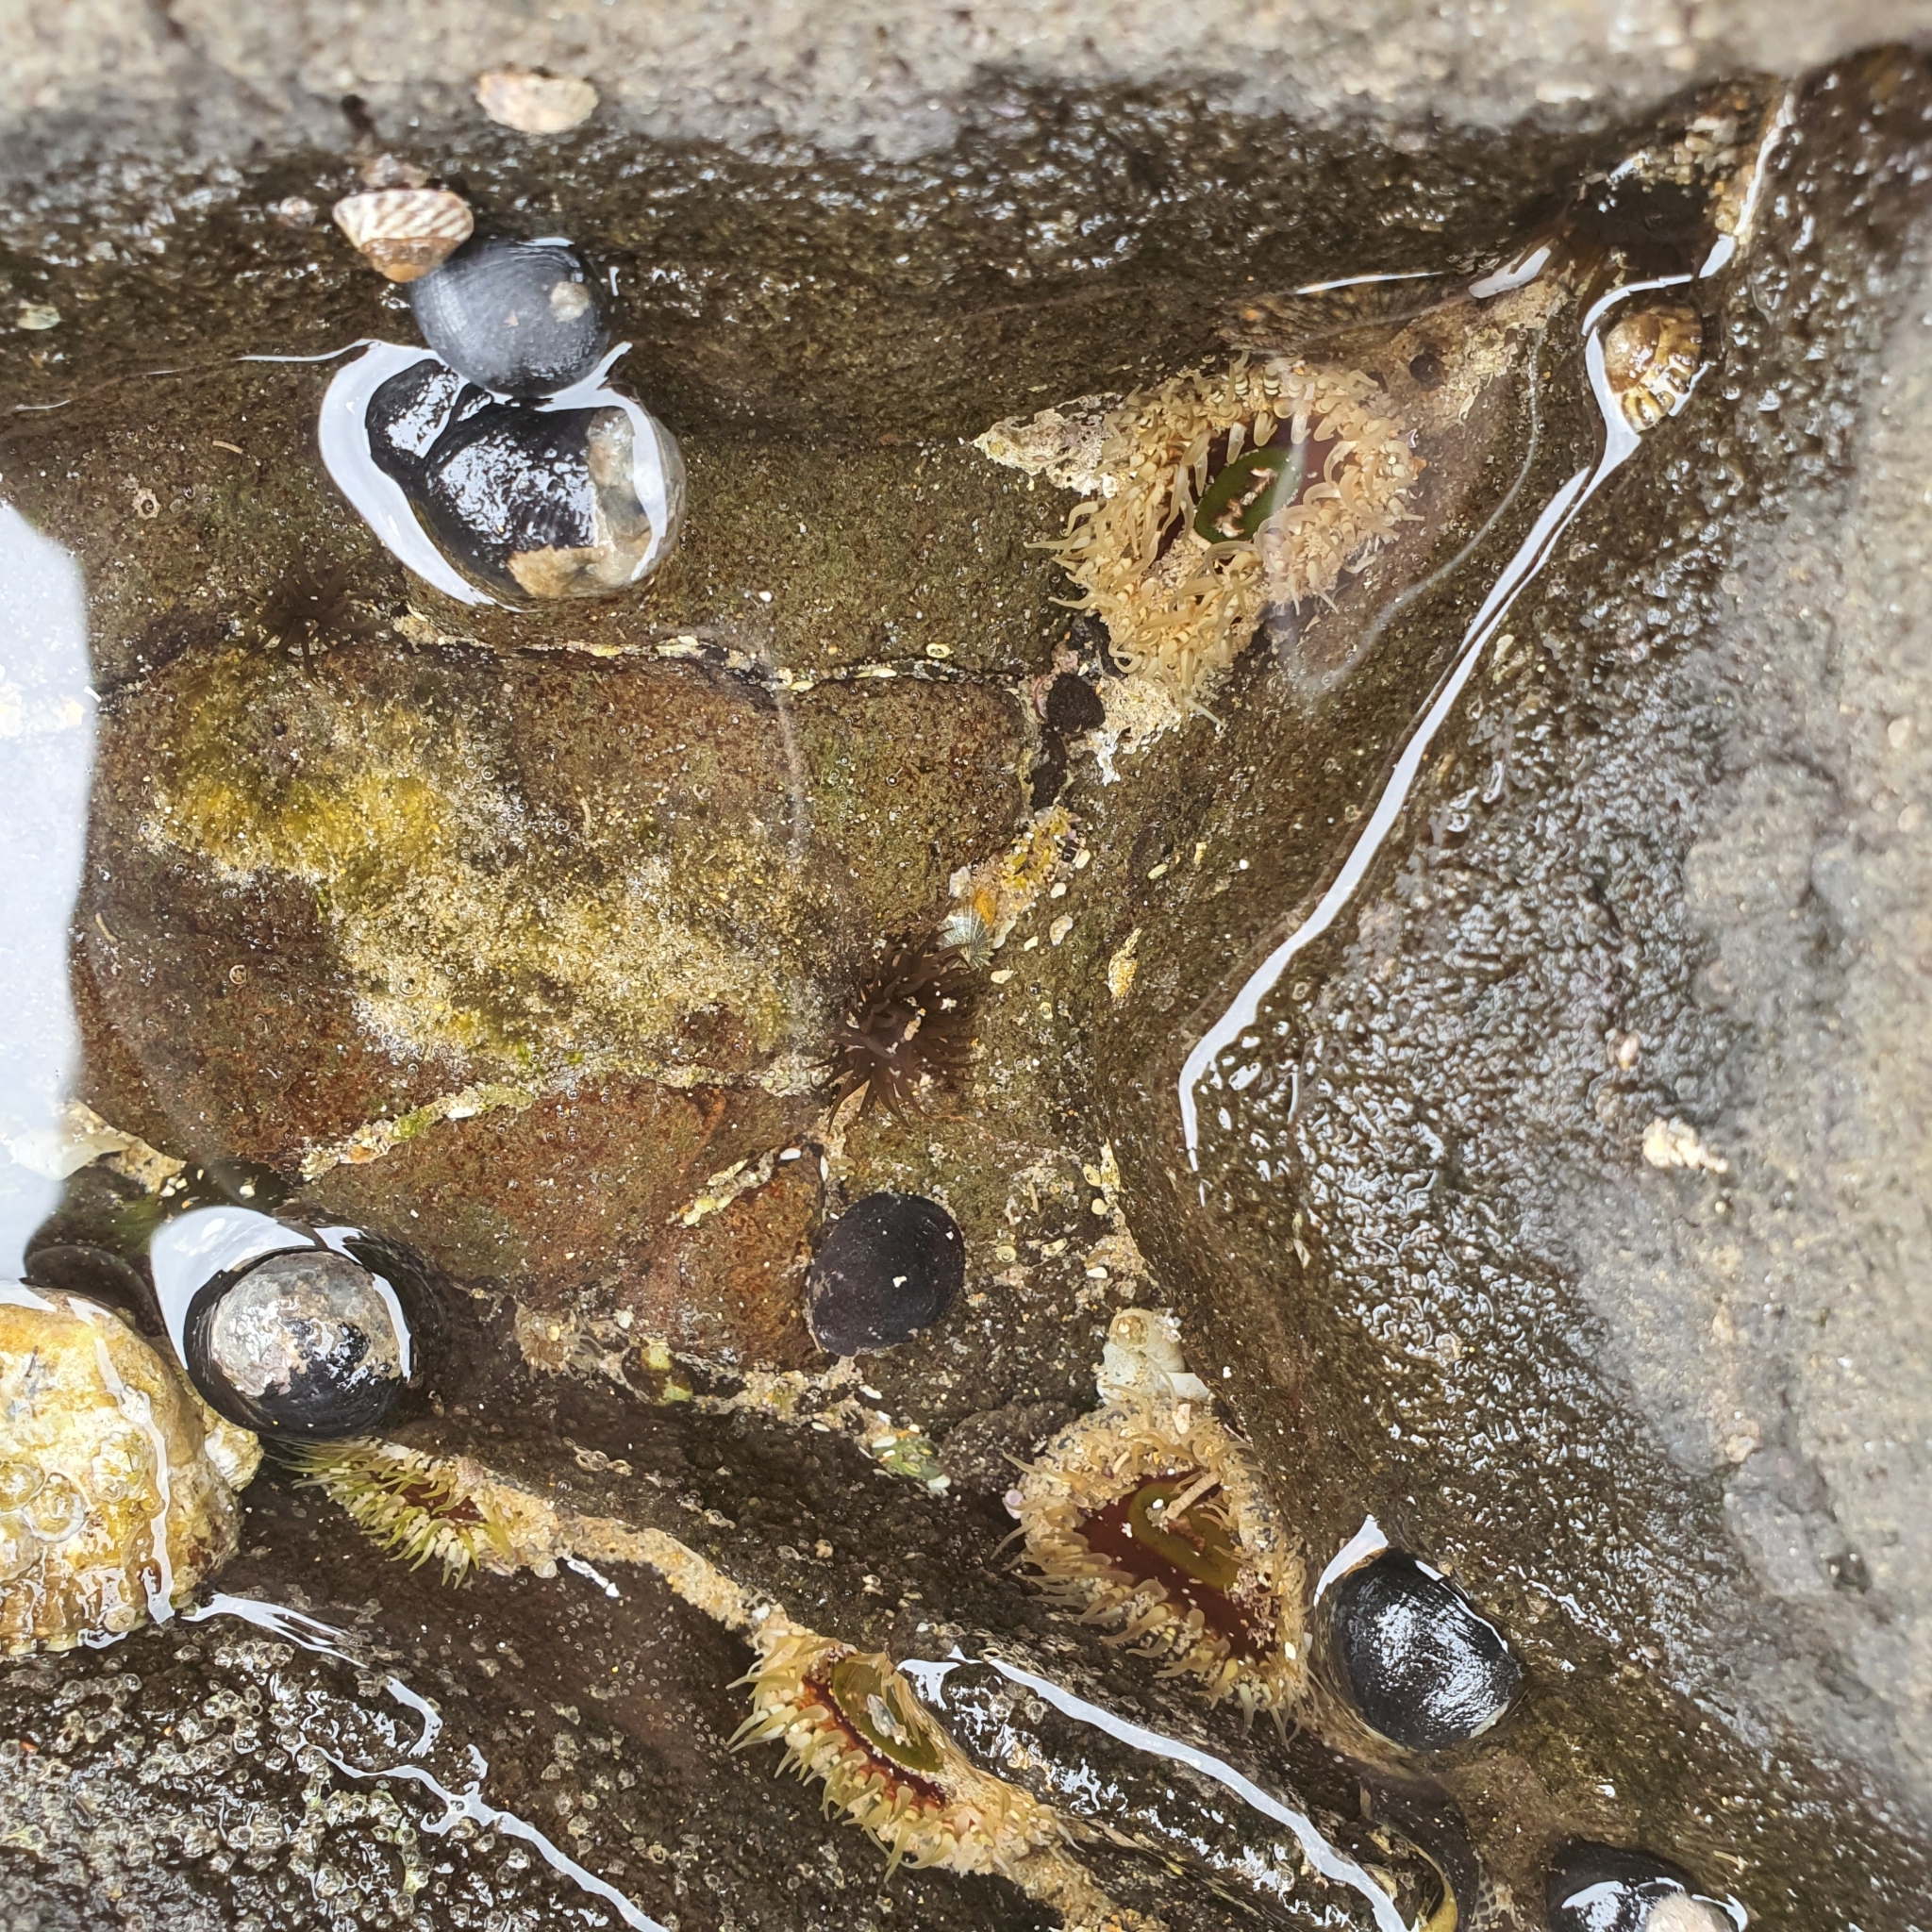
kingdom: Animalia
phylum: Cnidaria
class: Anthozoa
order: Actiniaria
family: Actiniidae
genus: Oulactis
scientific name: Oulactis muscosa
